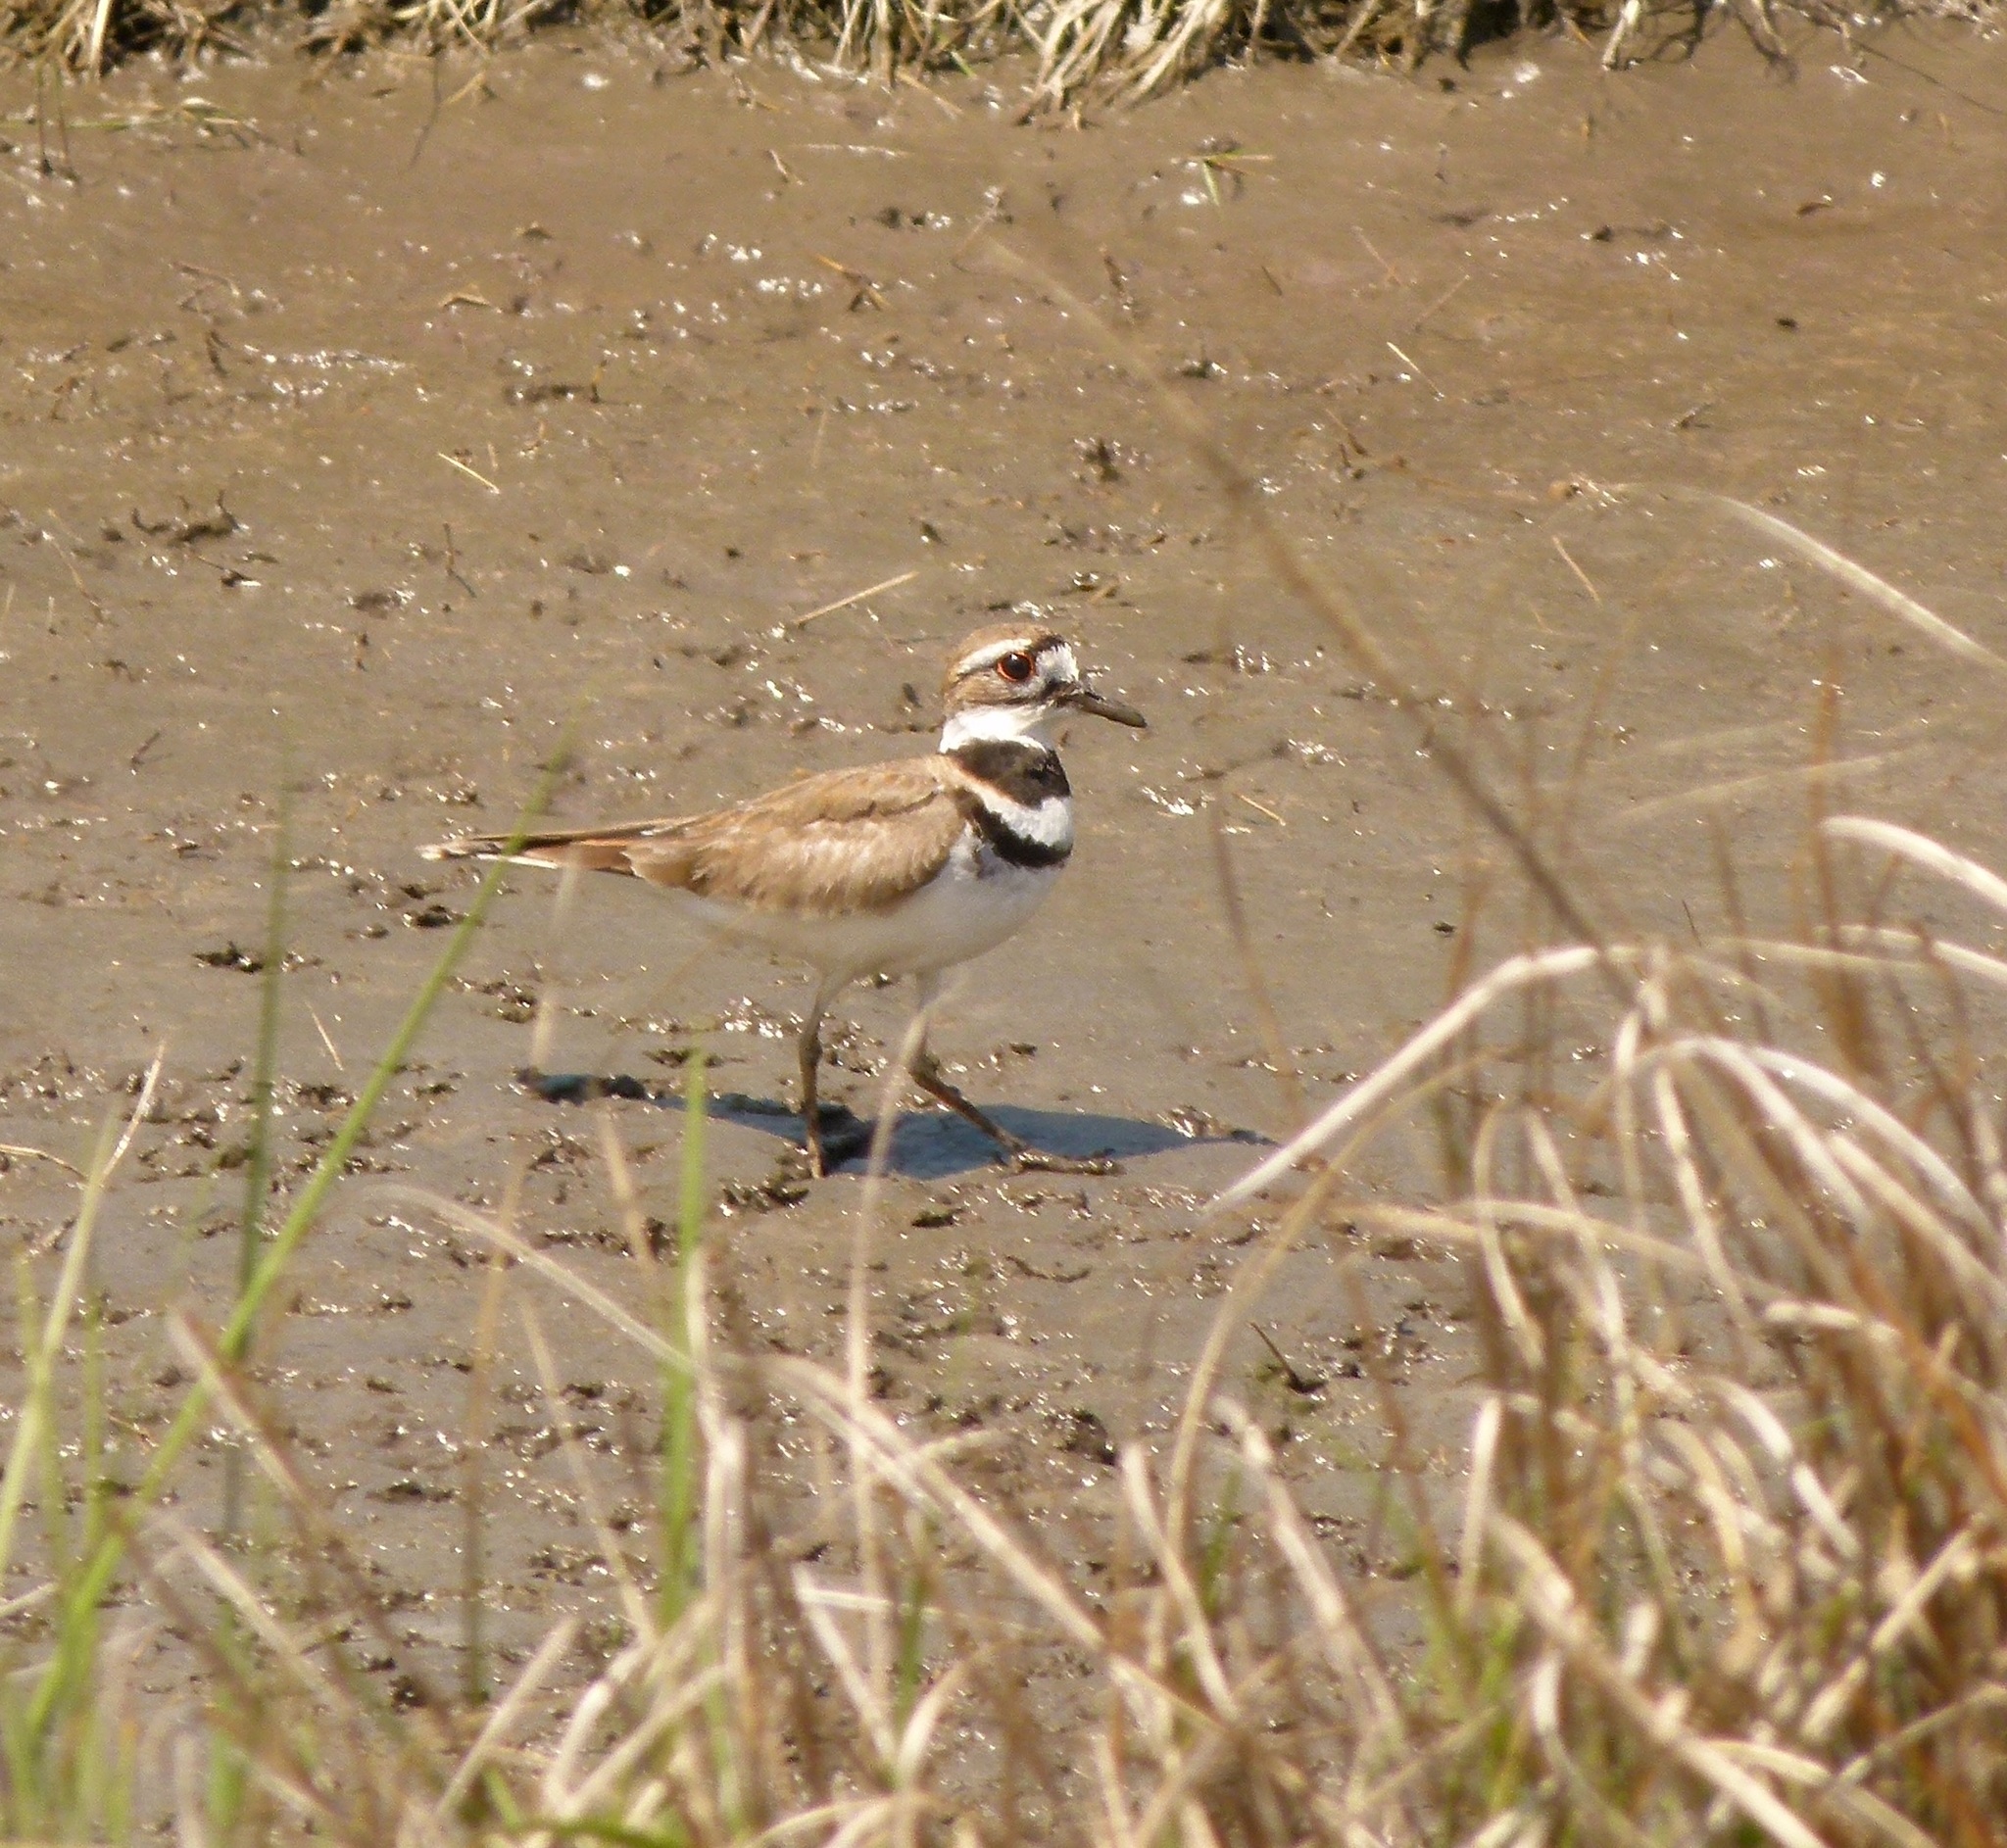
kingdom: Animalia
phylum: Chordata
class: Aves
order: Charadriiformes
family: Charadriidae
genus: Charadrius
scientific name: Charadrius vociferus
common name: Killdeer
